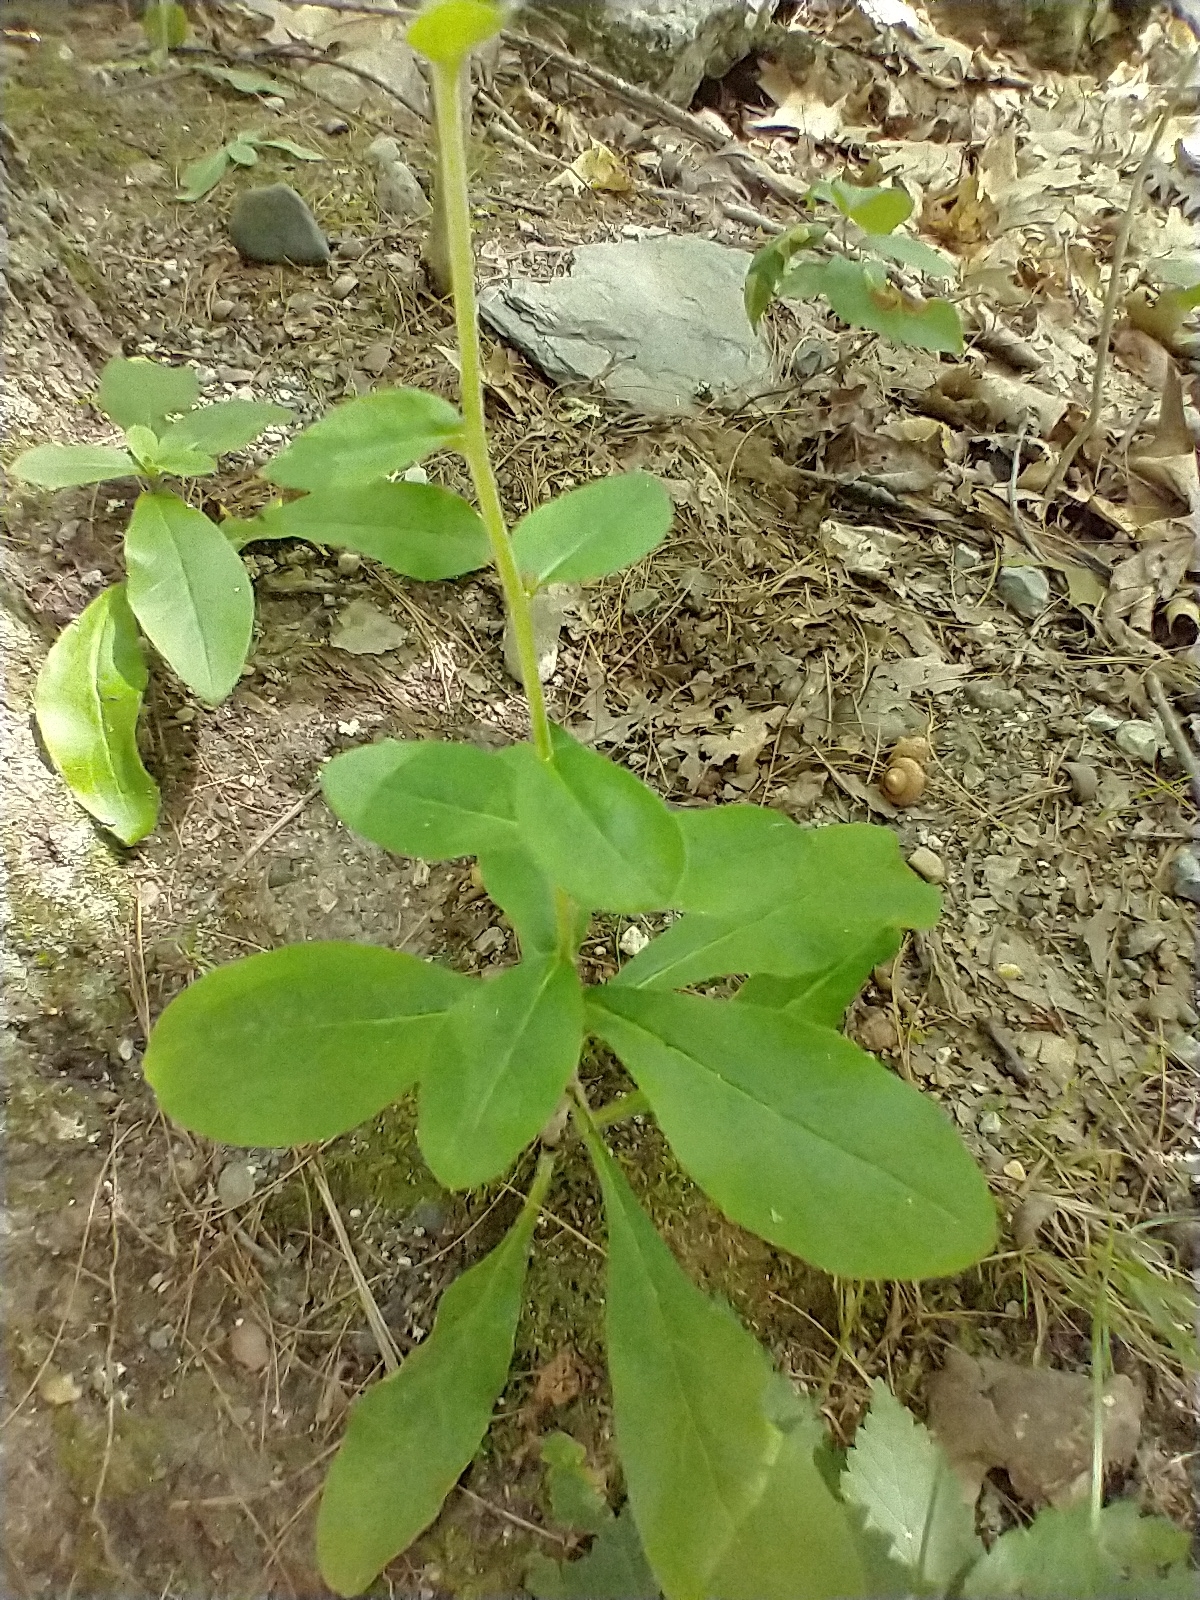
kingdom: Plantae
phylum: Tracheophyta
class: Magnoliopsida
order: Asterales
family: Asteraceae
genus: Hieracium
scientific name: Hieracium scabrum
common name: Rough hawkweed
